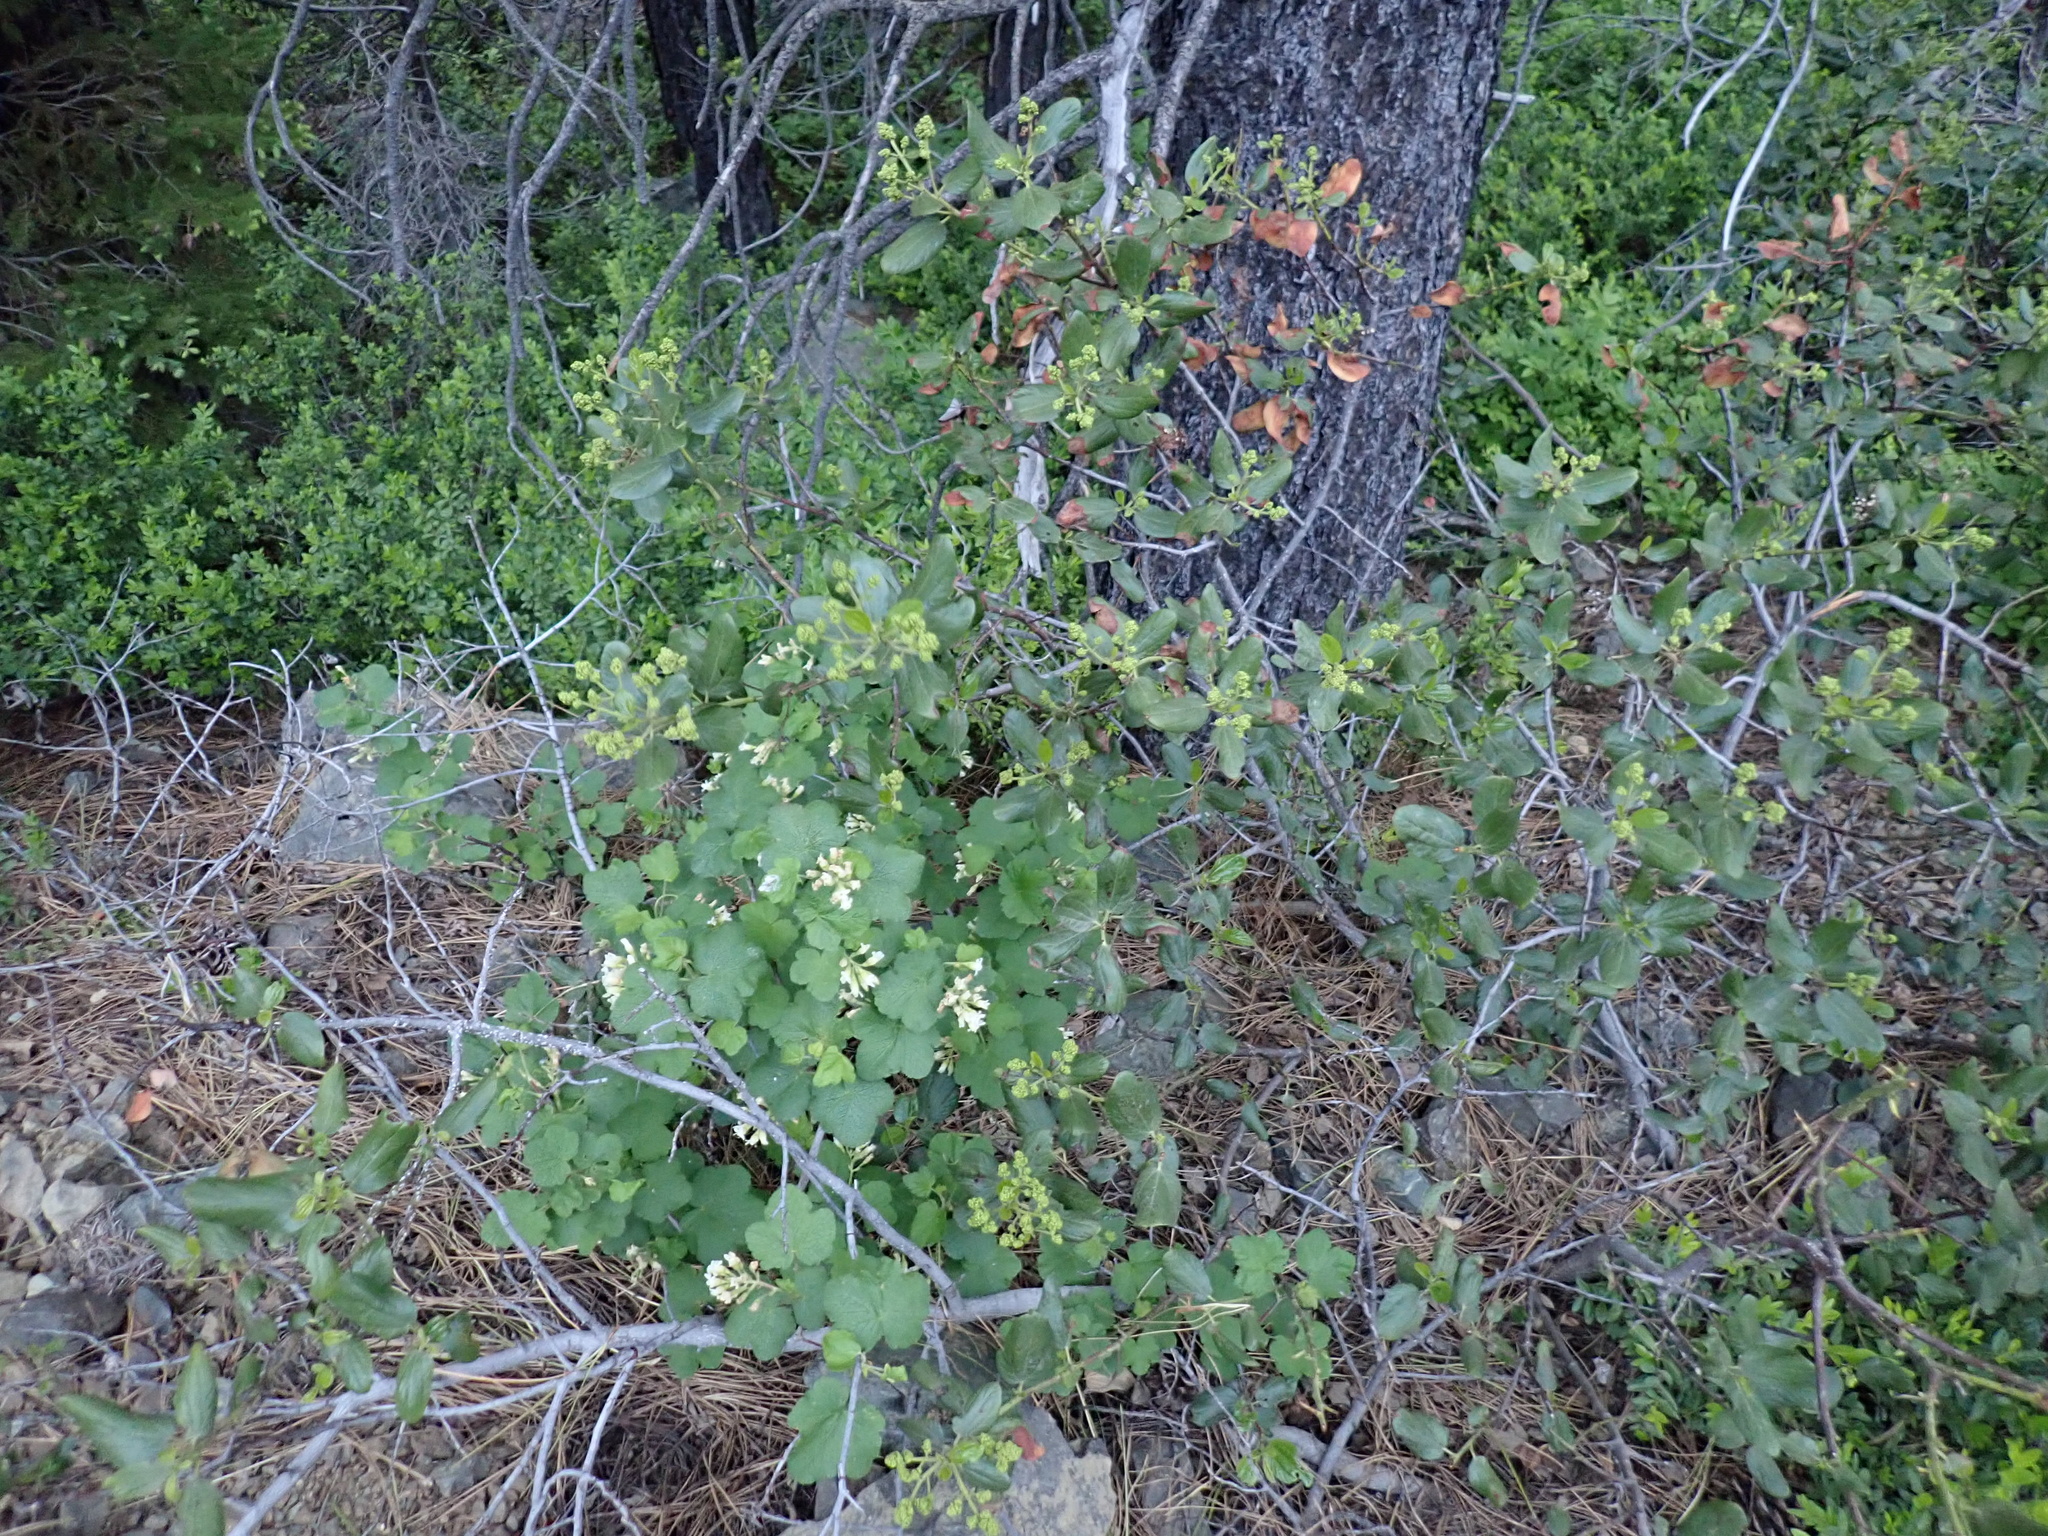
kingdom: Plantae
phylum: Tracheophyta
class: Magnoliopsida
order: Saxifragales
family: Grossulariaceae
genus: Ribes
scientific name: Ribes viscosissimum
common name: Sticky currant
